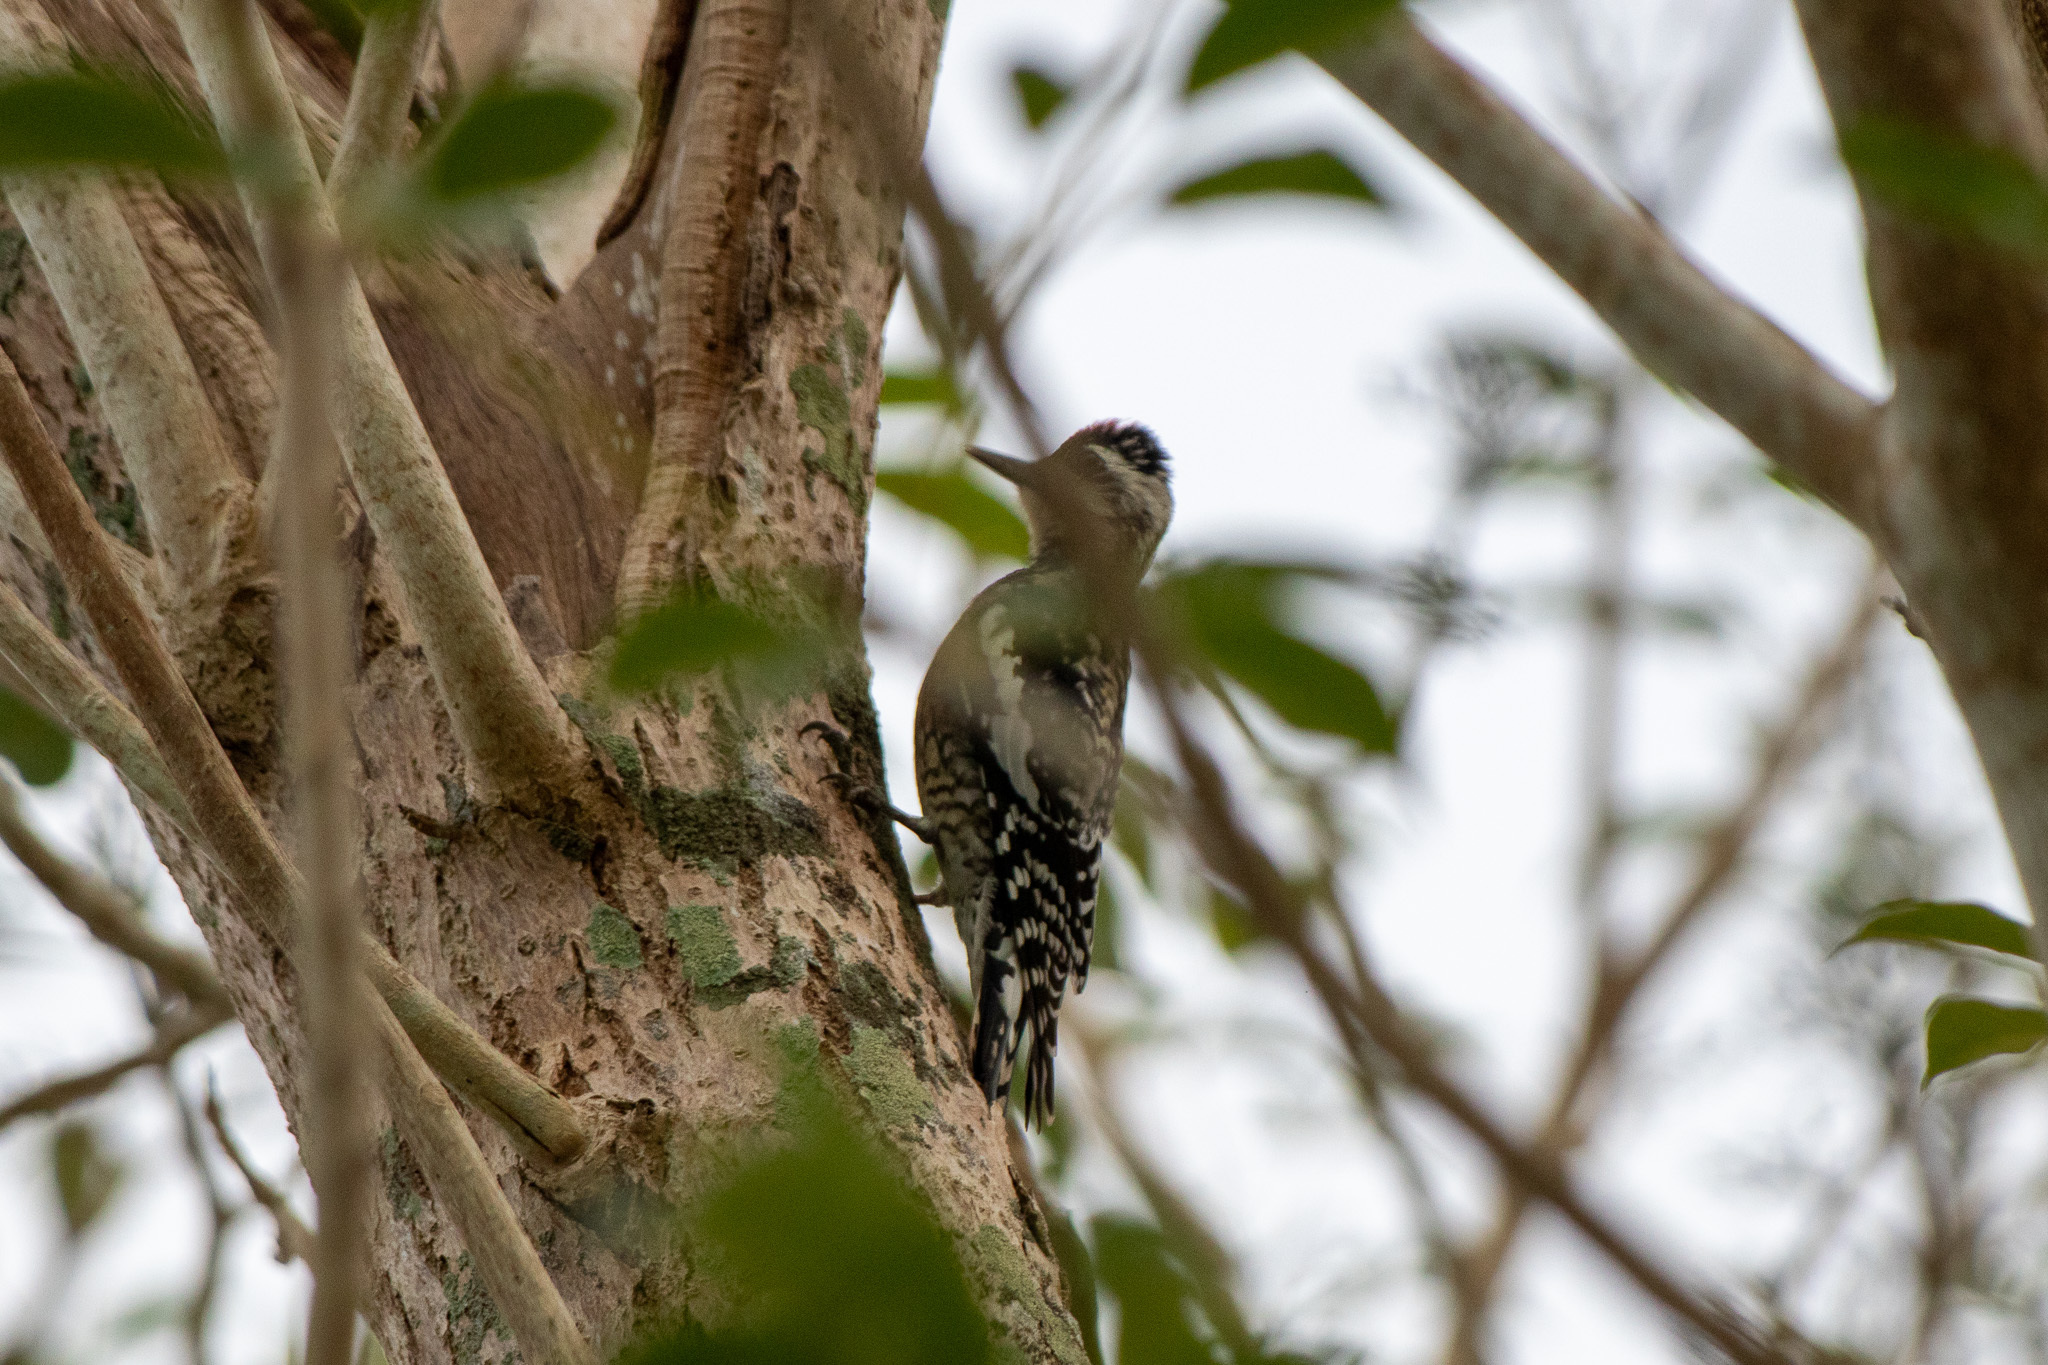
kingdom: Animalia
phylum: Chordata
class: Aves
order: Piciformes
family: Picidae
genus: Sphyrapicus
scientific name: Sphyrapicus varius
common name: Yellow-bellied sapsucker
